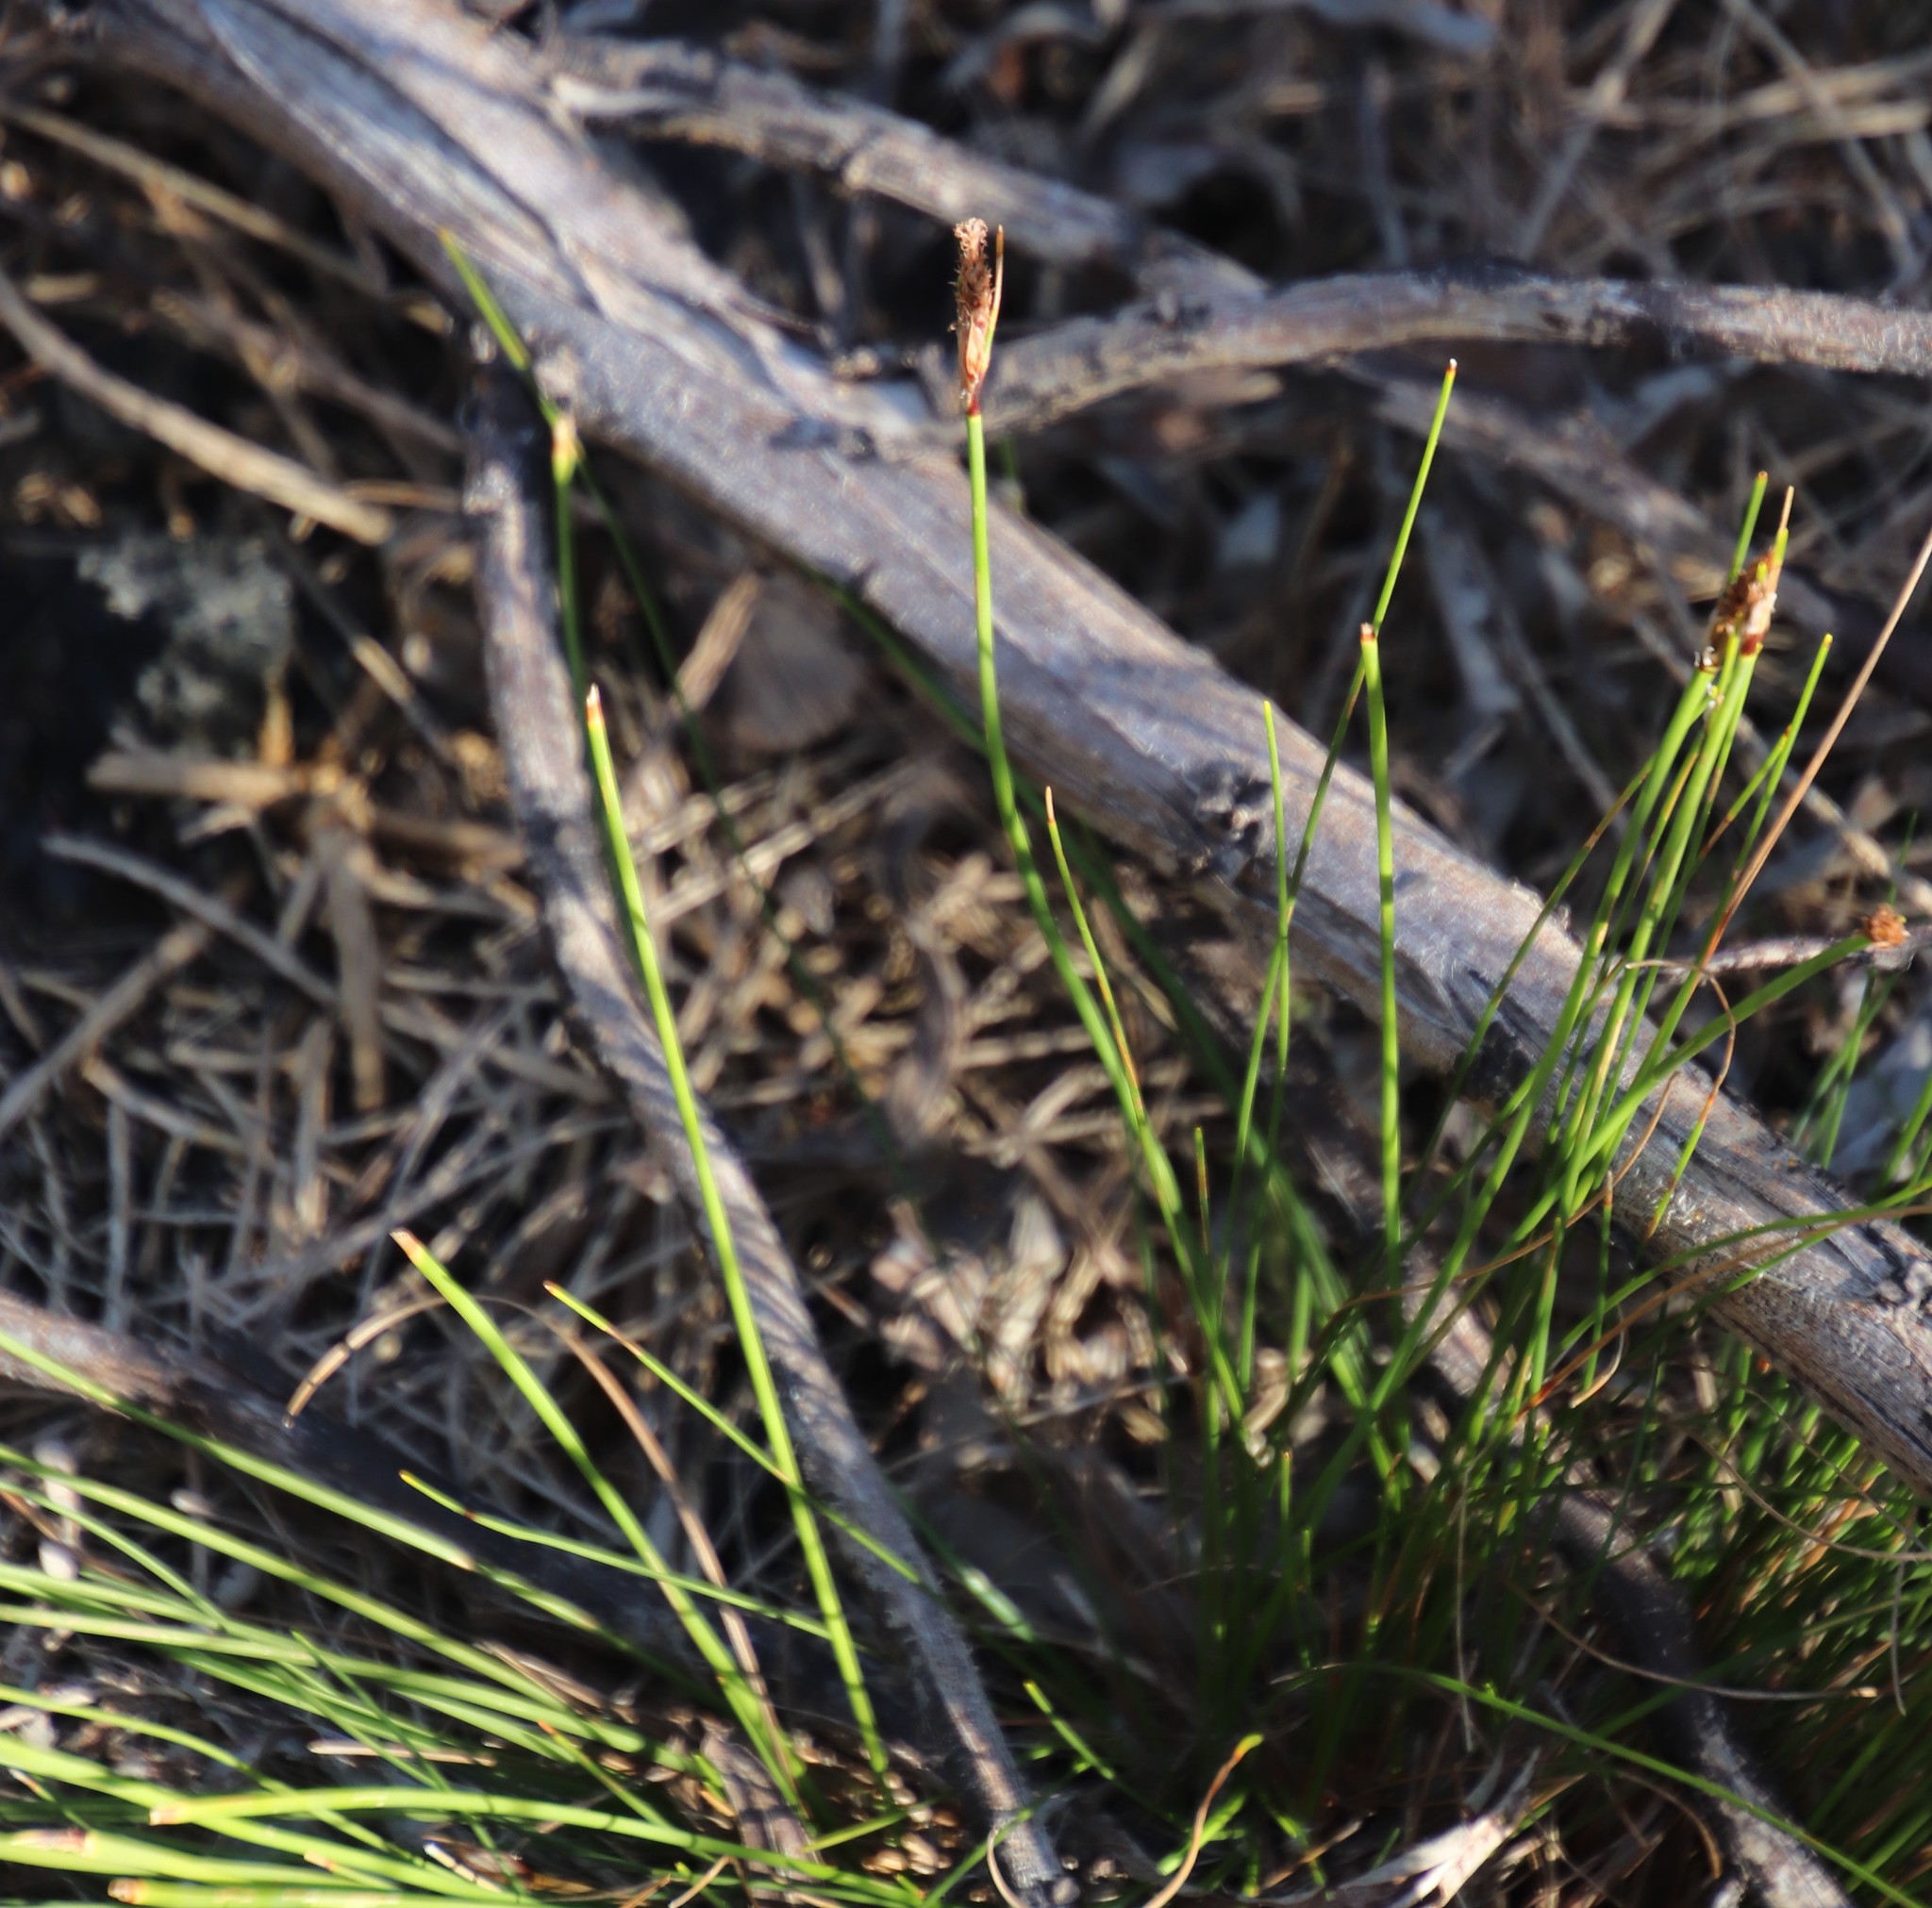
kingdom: Plantae
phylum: Tracheophyta
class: Liliopsida
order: Poales
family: Cyperaceae
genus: Ficinia
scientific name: Ficinia deusta
